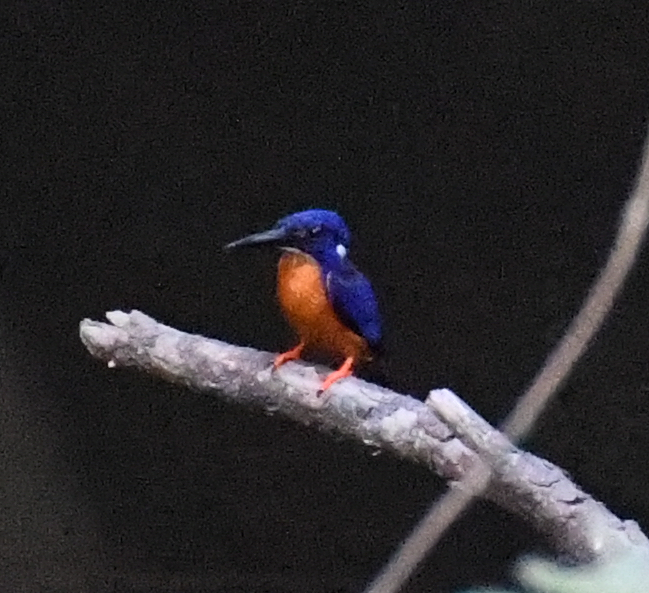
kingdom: Animalia
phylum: Chordata
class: Aves
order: Coraciiformes
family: Alcedinidae
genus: Alcedo
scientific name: Alcedo quadribrachys
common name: Shining-blue kingfisher
